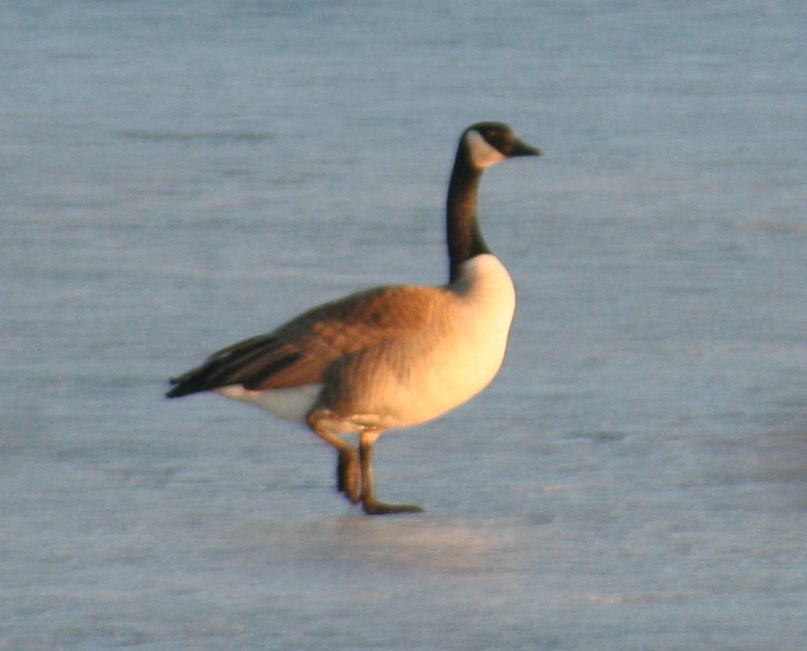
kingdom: Animalia
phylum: Chordata
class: Aves
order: Anseriformes
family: Anatidae
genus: Branta
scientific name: Branta canadensis
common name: Canada goose
